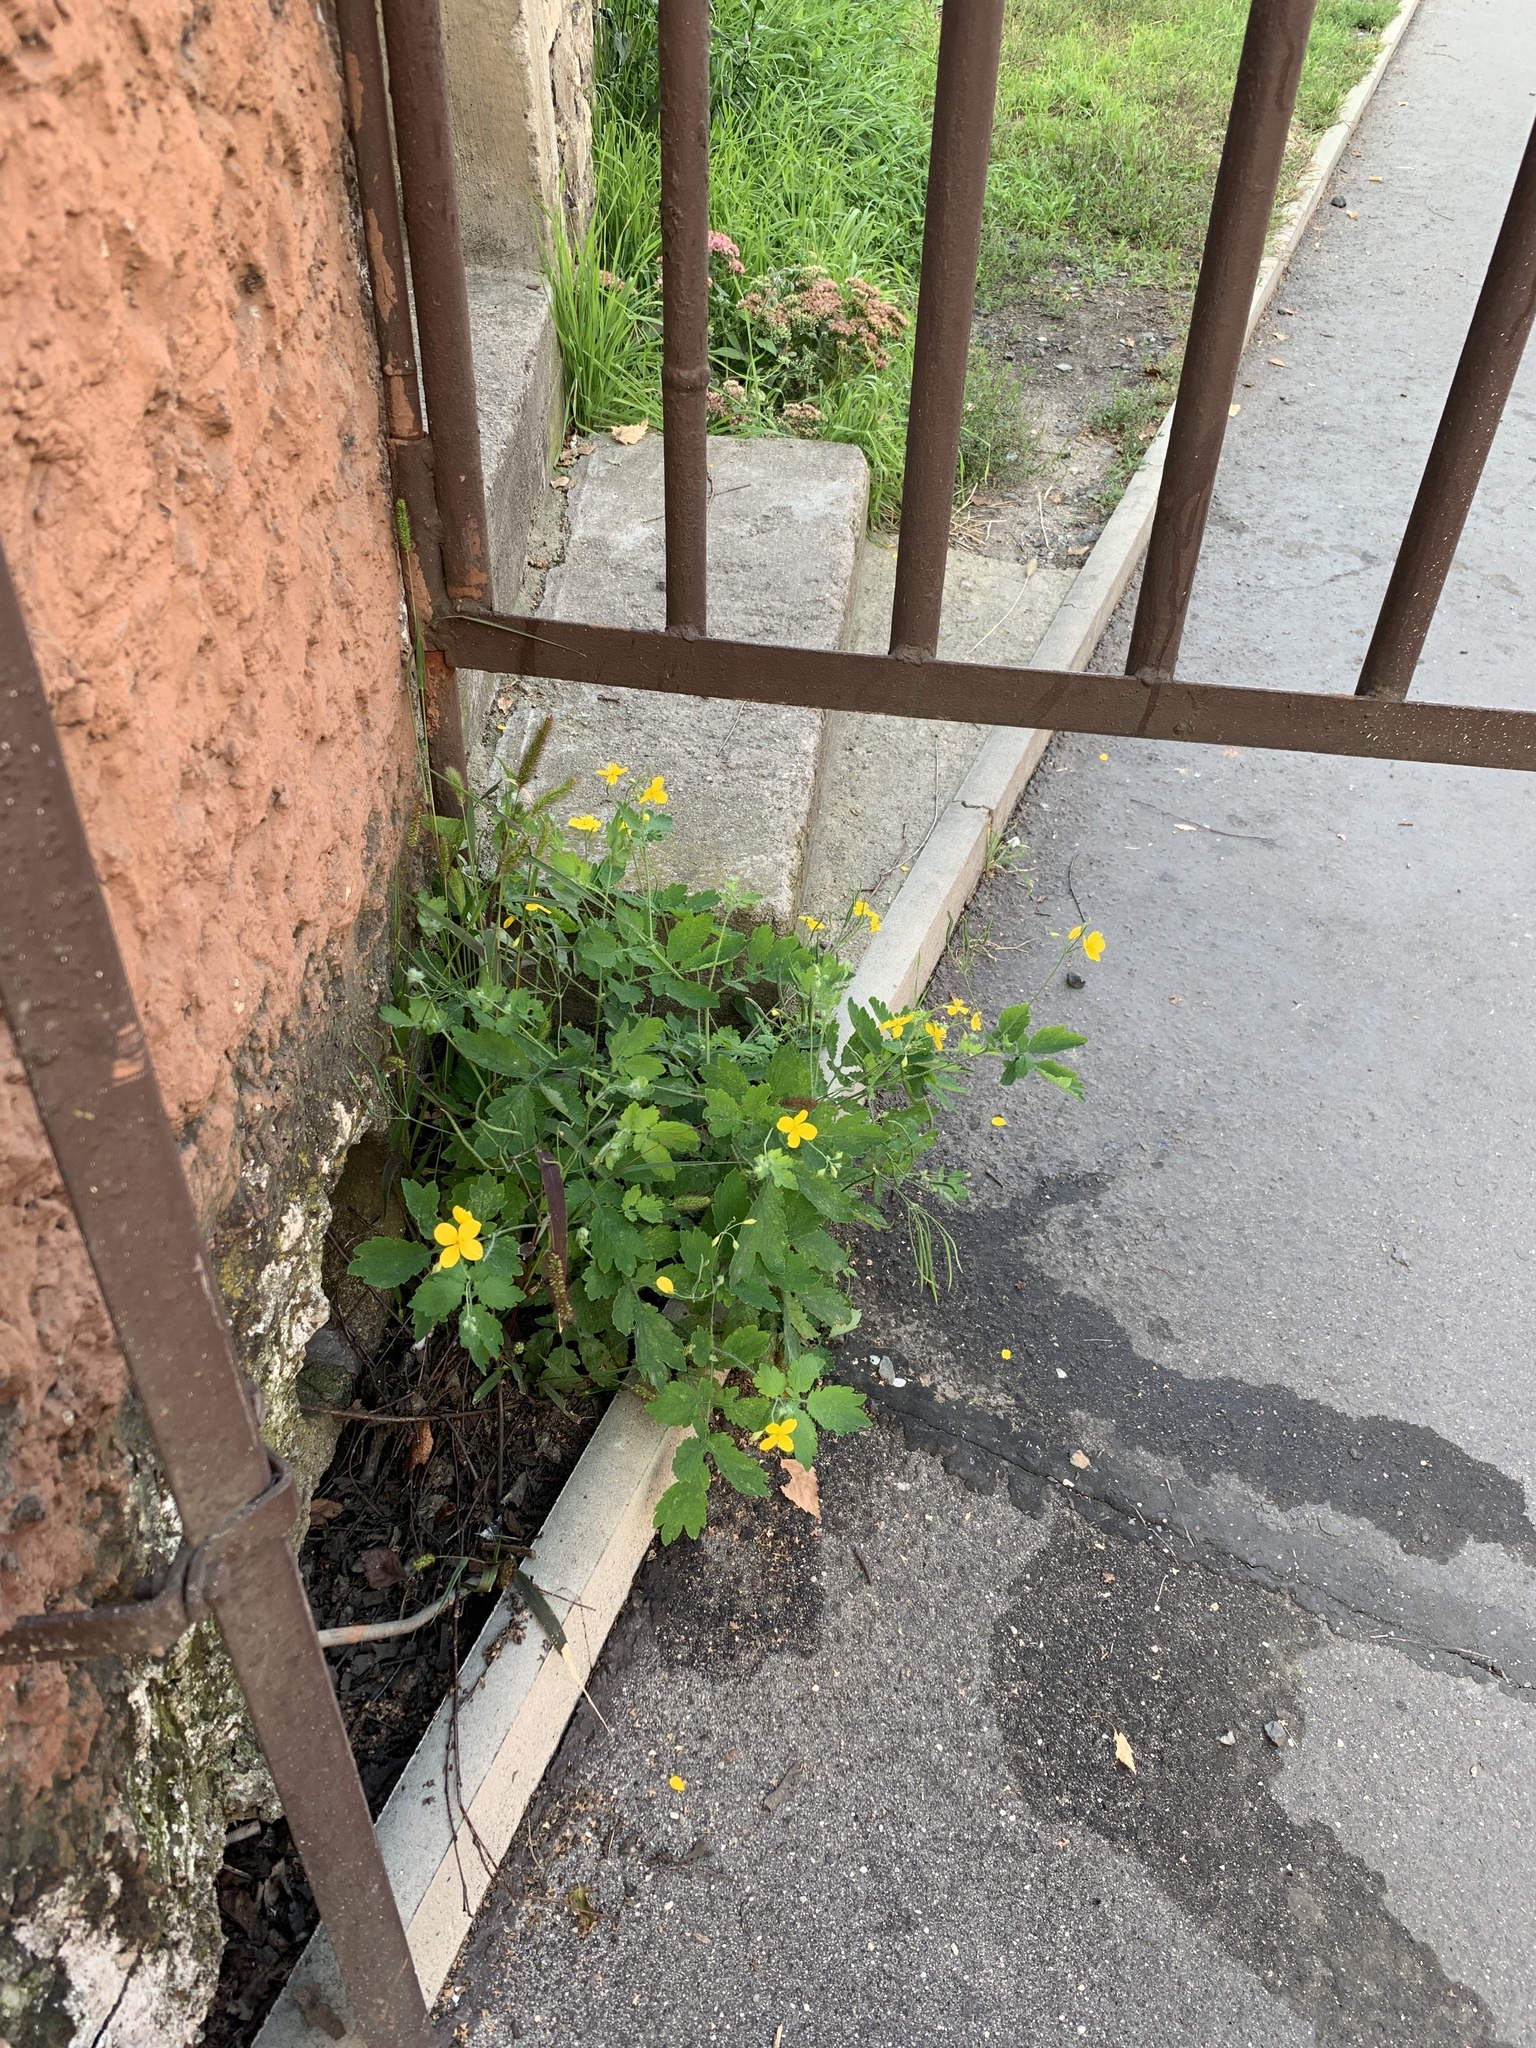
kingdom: Plantae
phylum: Tracheophyta
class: Magnoliopsida
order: Ranunculales
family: Papaveraceae
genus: Chelidonium
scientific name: Chelidonium majus
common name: Greater celandine
